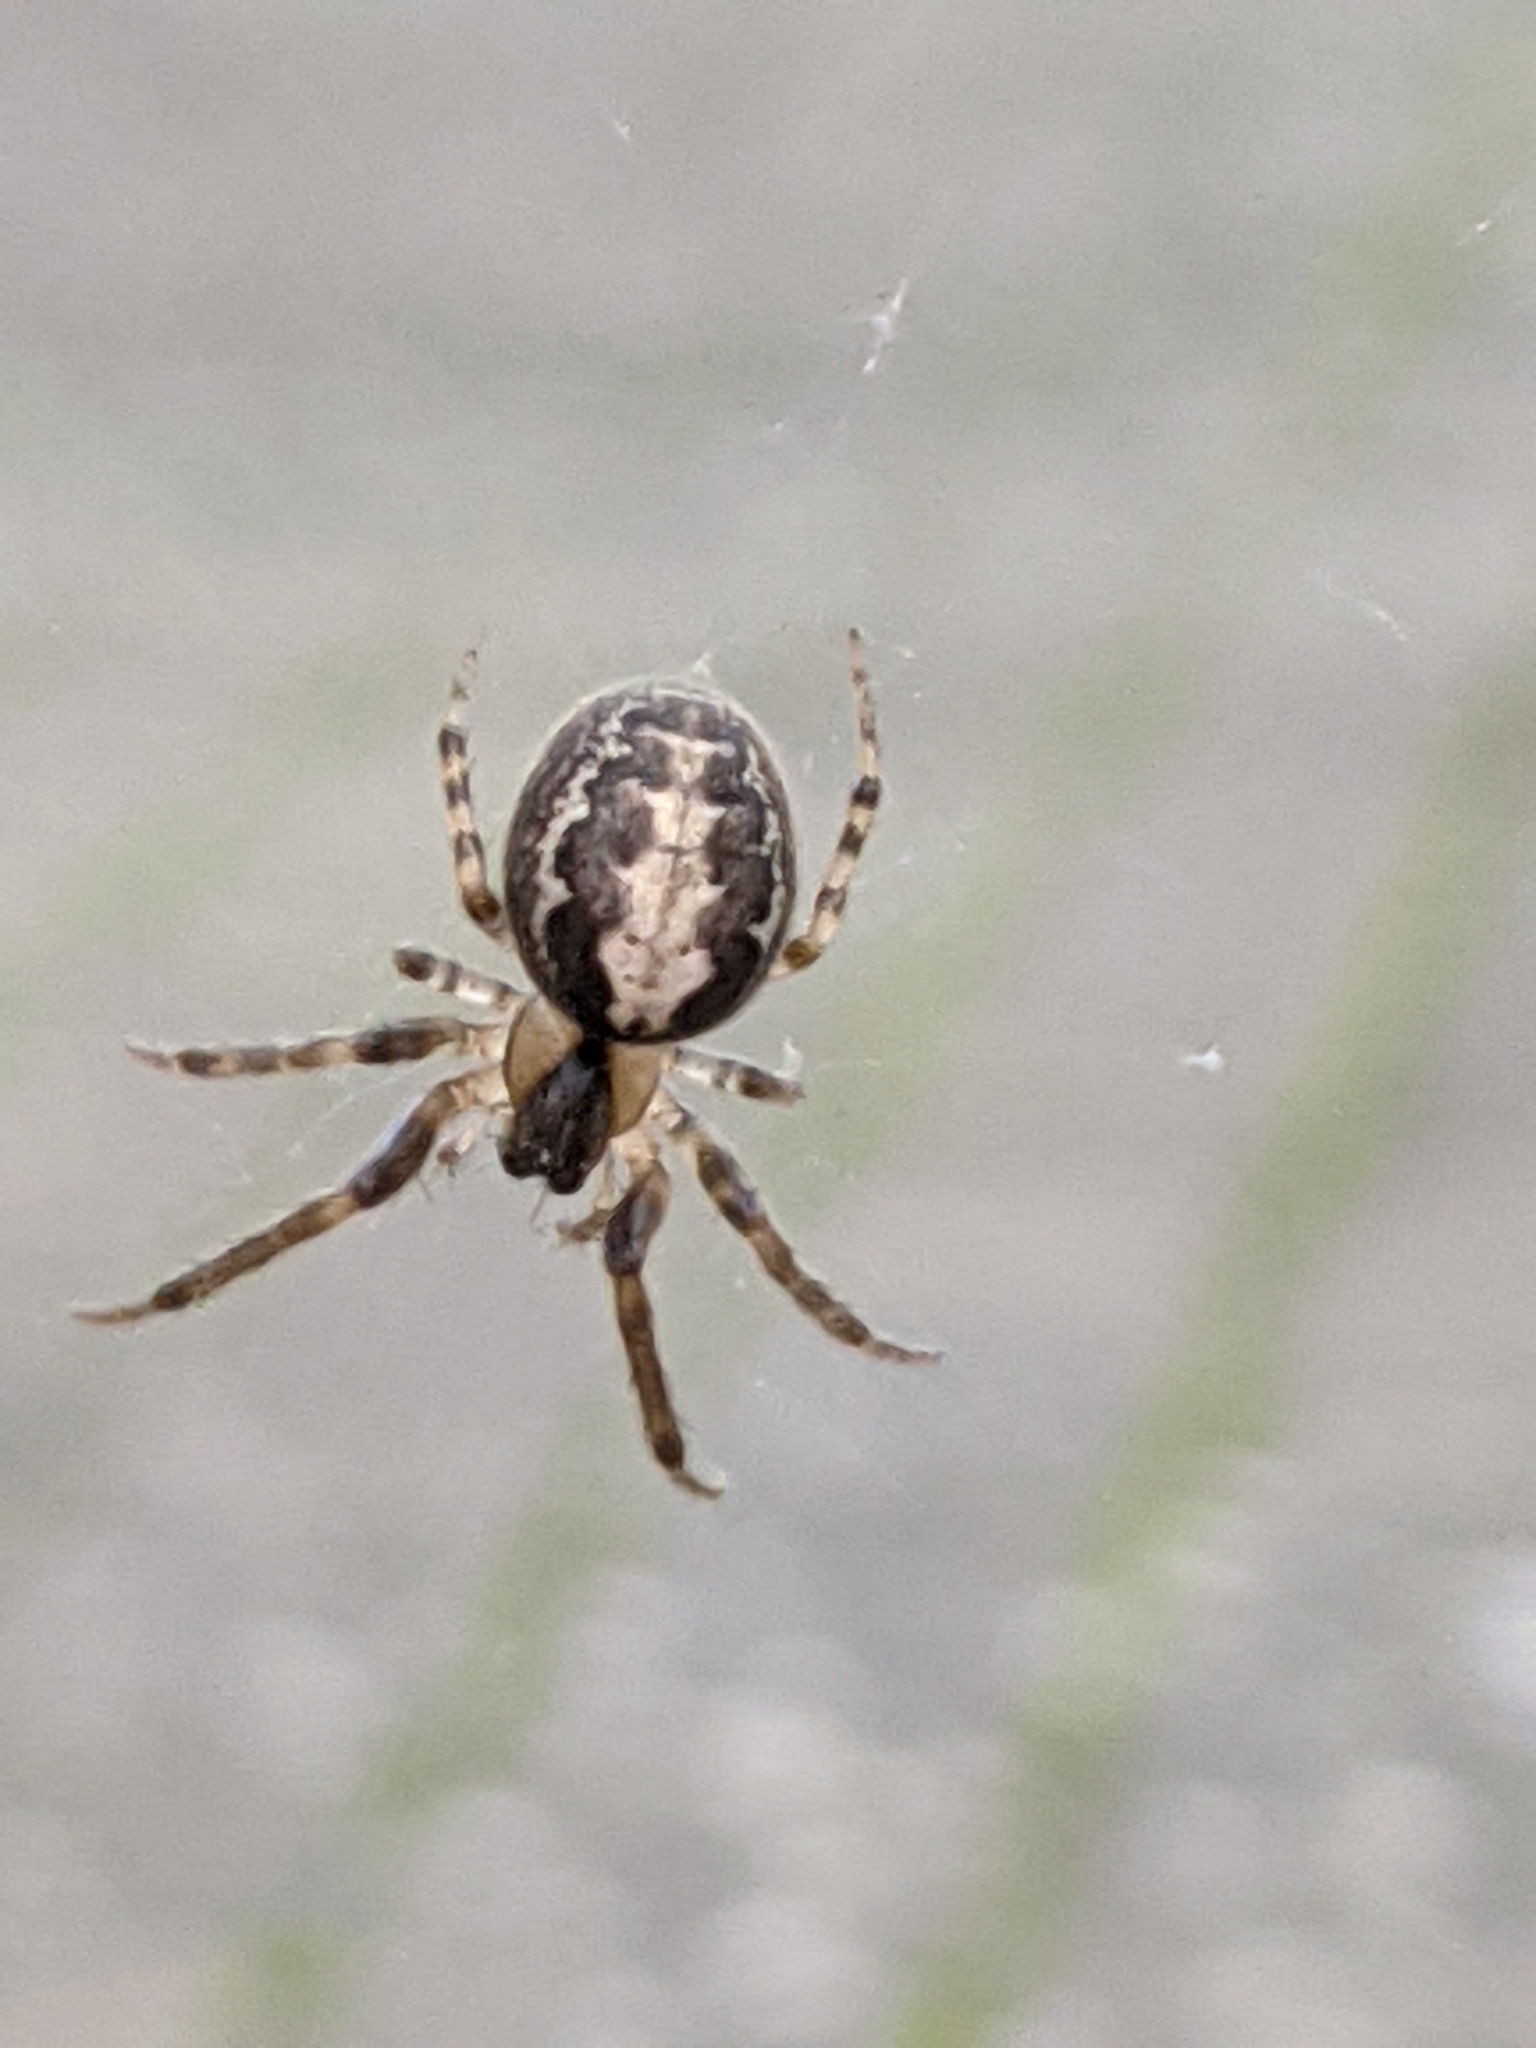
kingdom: Animalia
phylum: Arthropoda
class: Arachnida
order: Araneae
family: Araneidae
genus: Zygiella
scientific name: Zygiella x-notata
